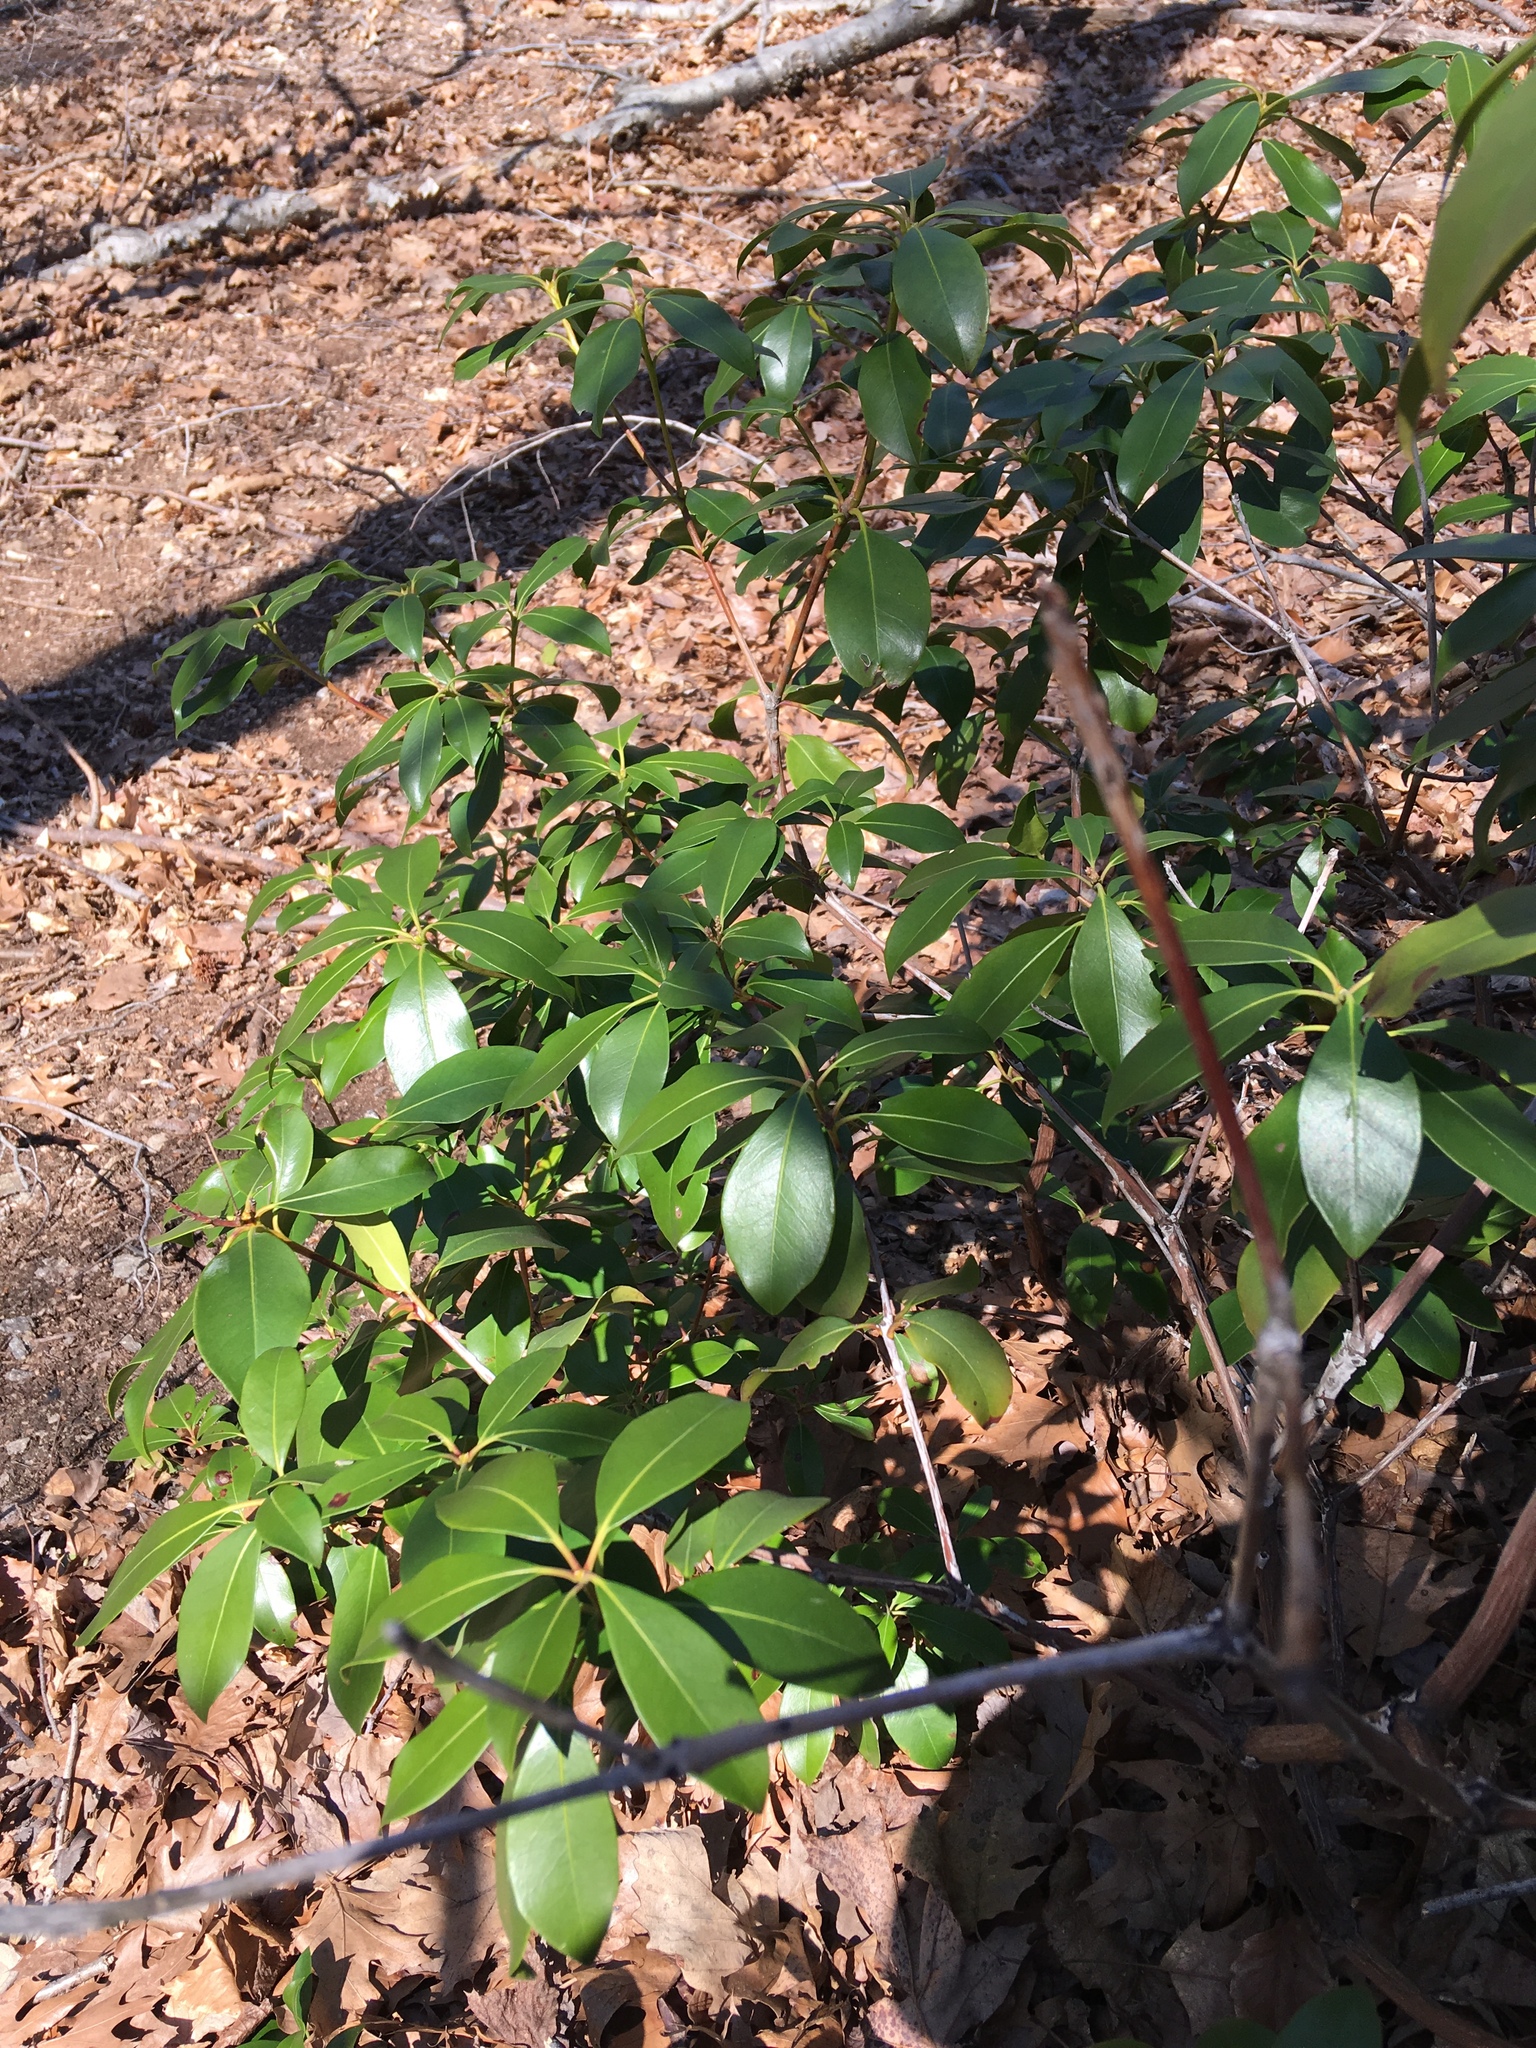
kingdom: Plantae
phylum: Tracheophyta
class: Magnoliopsida
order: Ericales
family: Ericaceae
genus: Kalmia
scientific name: Kalmia latifolia
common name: Mountain-laurel
